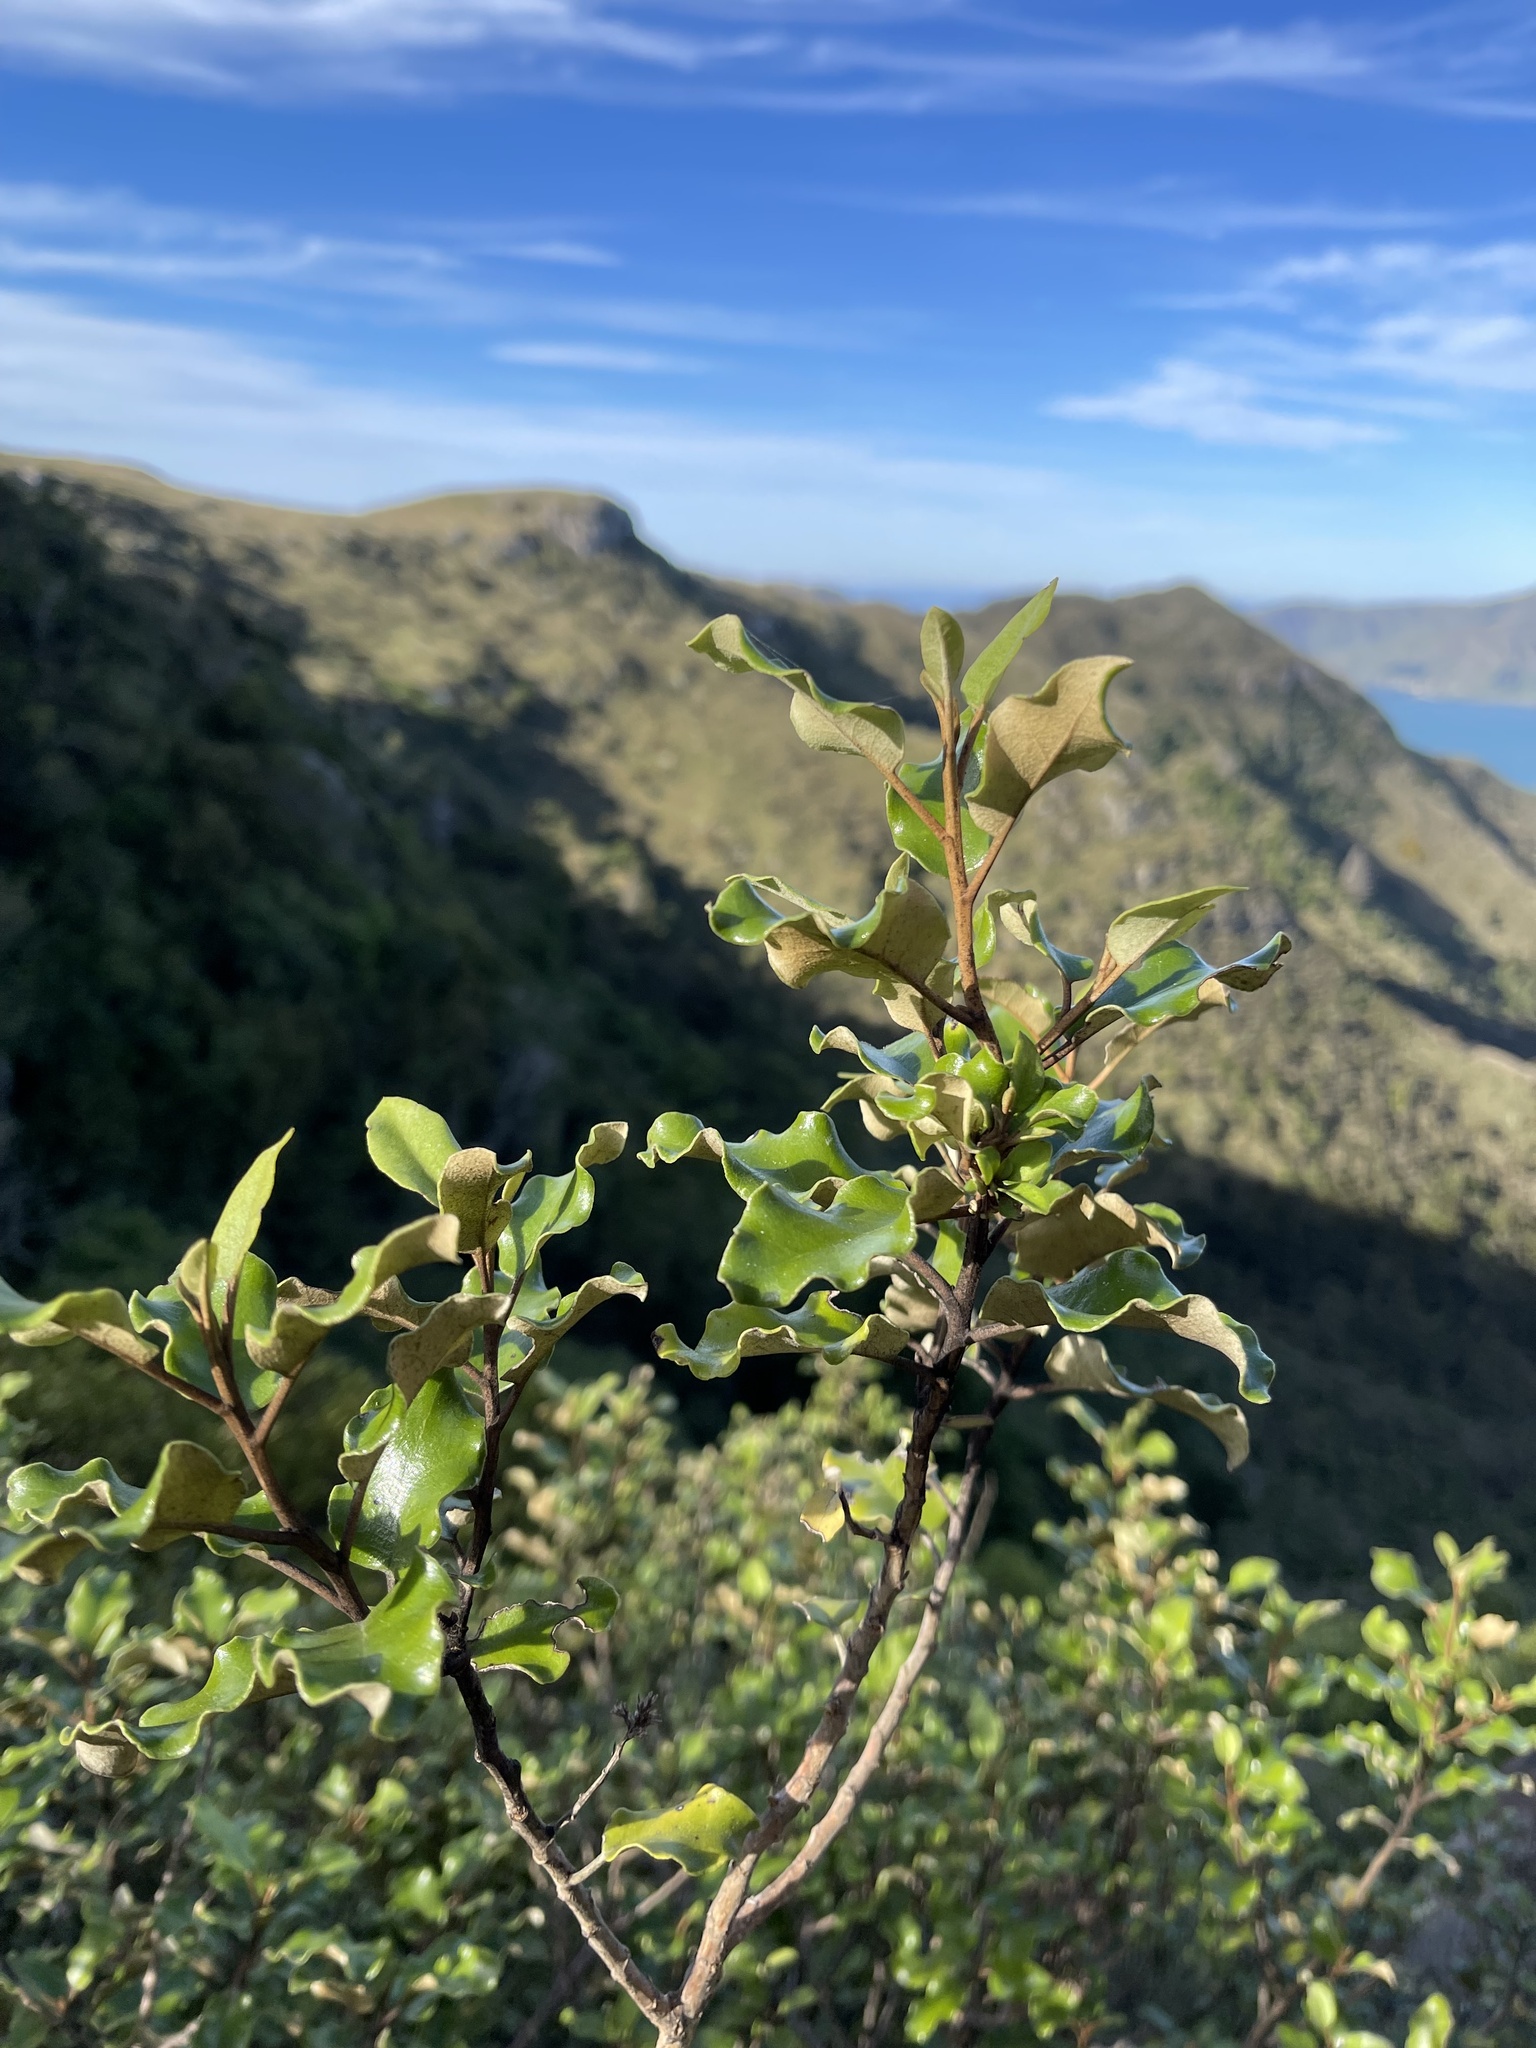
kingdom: Plantae
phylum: Tracheophyta
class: Magnoliopsida
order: Asterales
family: Asteraceae
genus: Olearia
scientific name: Olearia paniculata
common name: Akiraho
